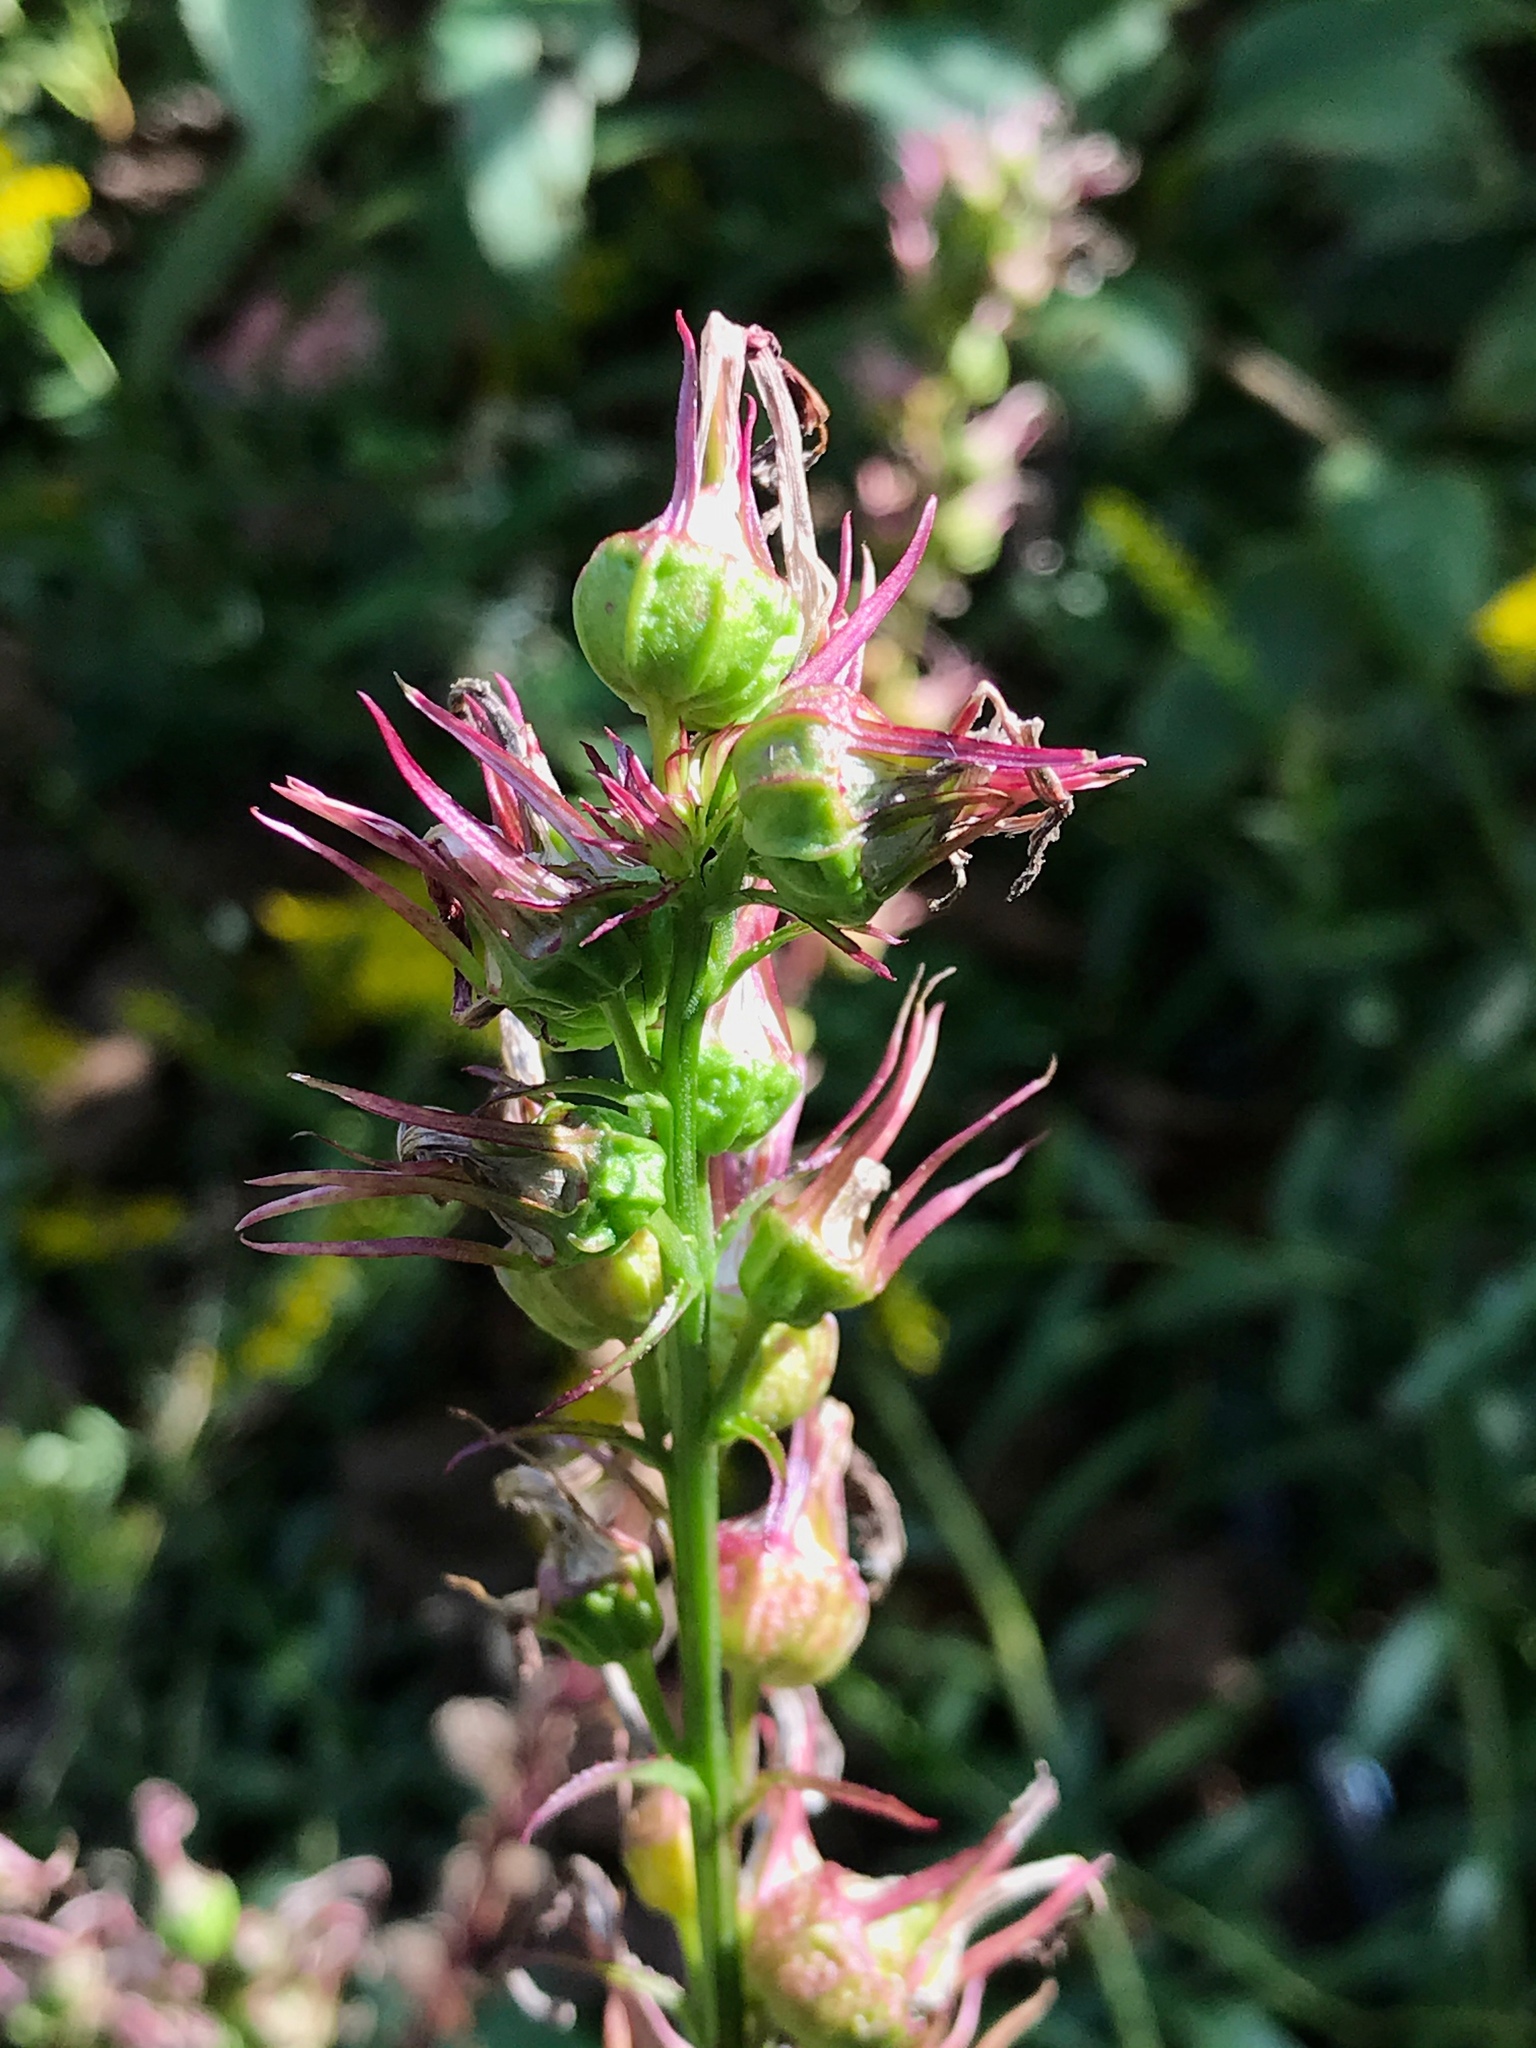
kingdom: Plantae
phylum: Tracheophyta
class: Magnoliopsida
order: Asterales
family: Campanulaceae
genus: Lobelia
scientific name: Lobelia cardinalis
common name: Cardinal flower
